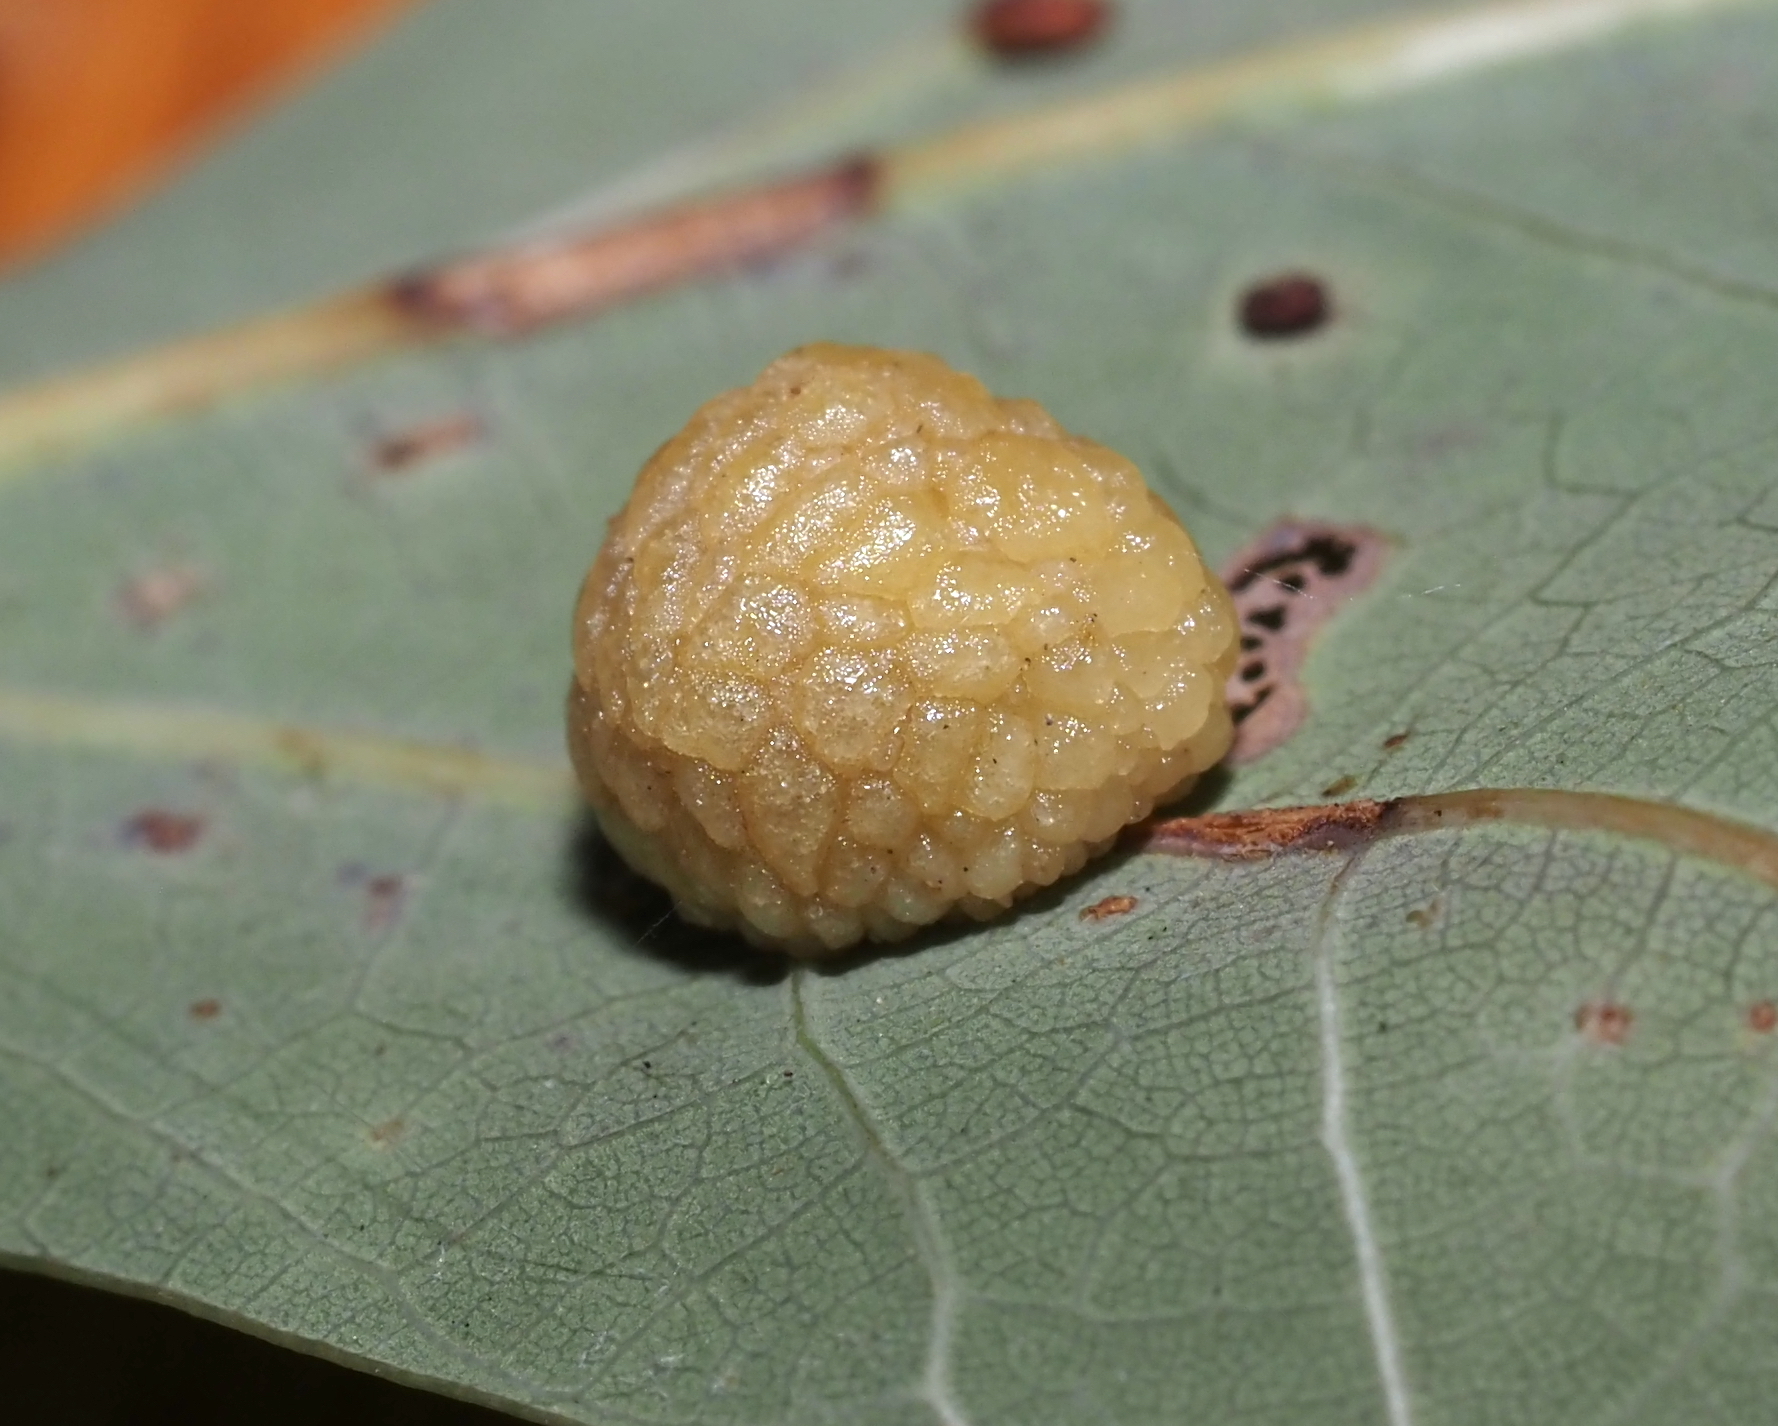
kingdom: Animalia
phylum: Arthropoda
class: Insecta
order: Hymenoptera
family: Cynipidae
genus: Acraspis
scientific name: Acraspis
